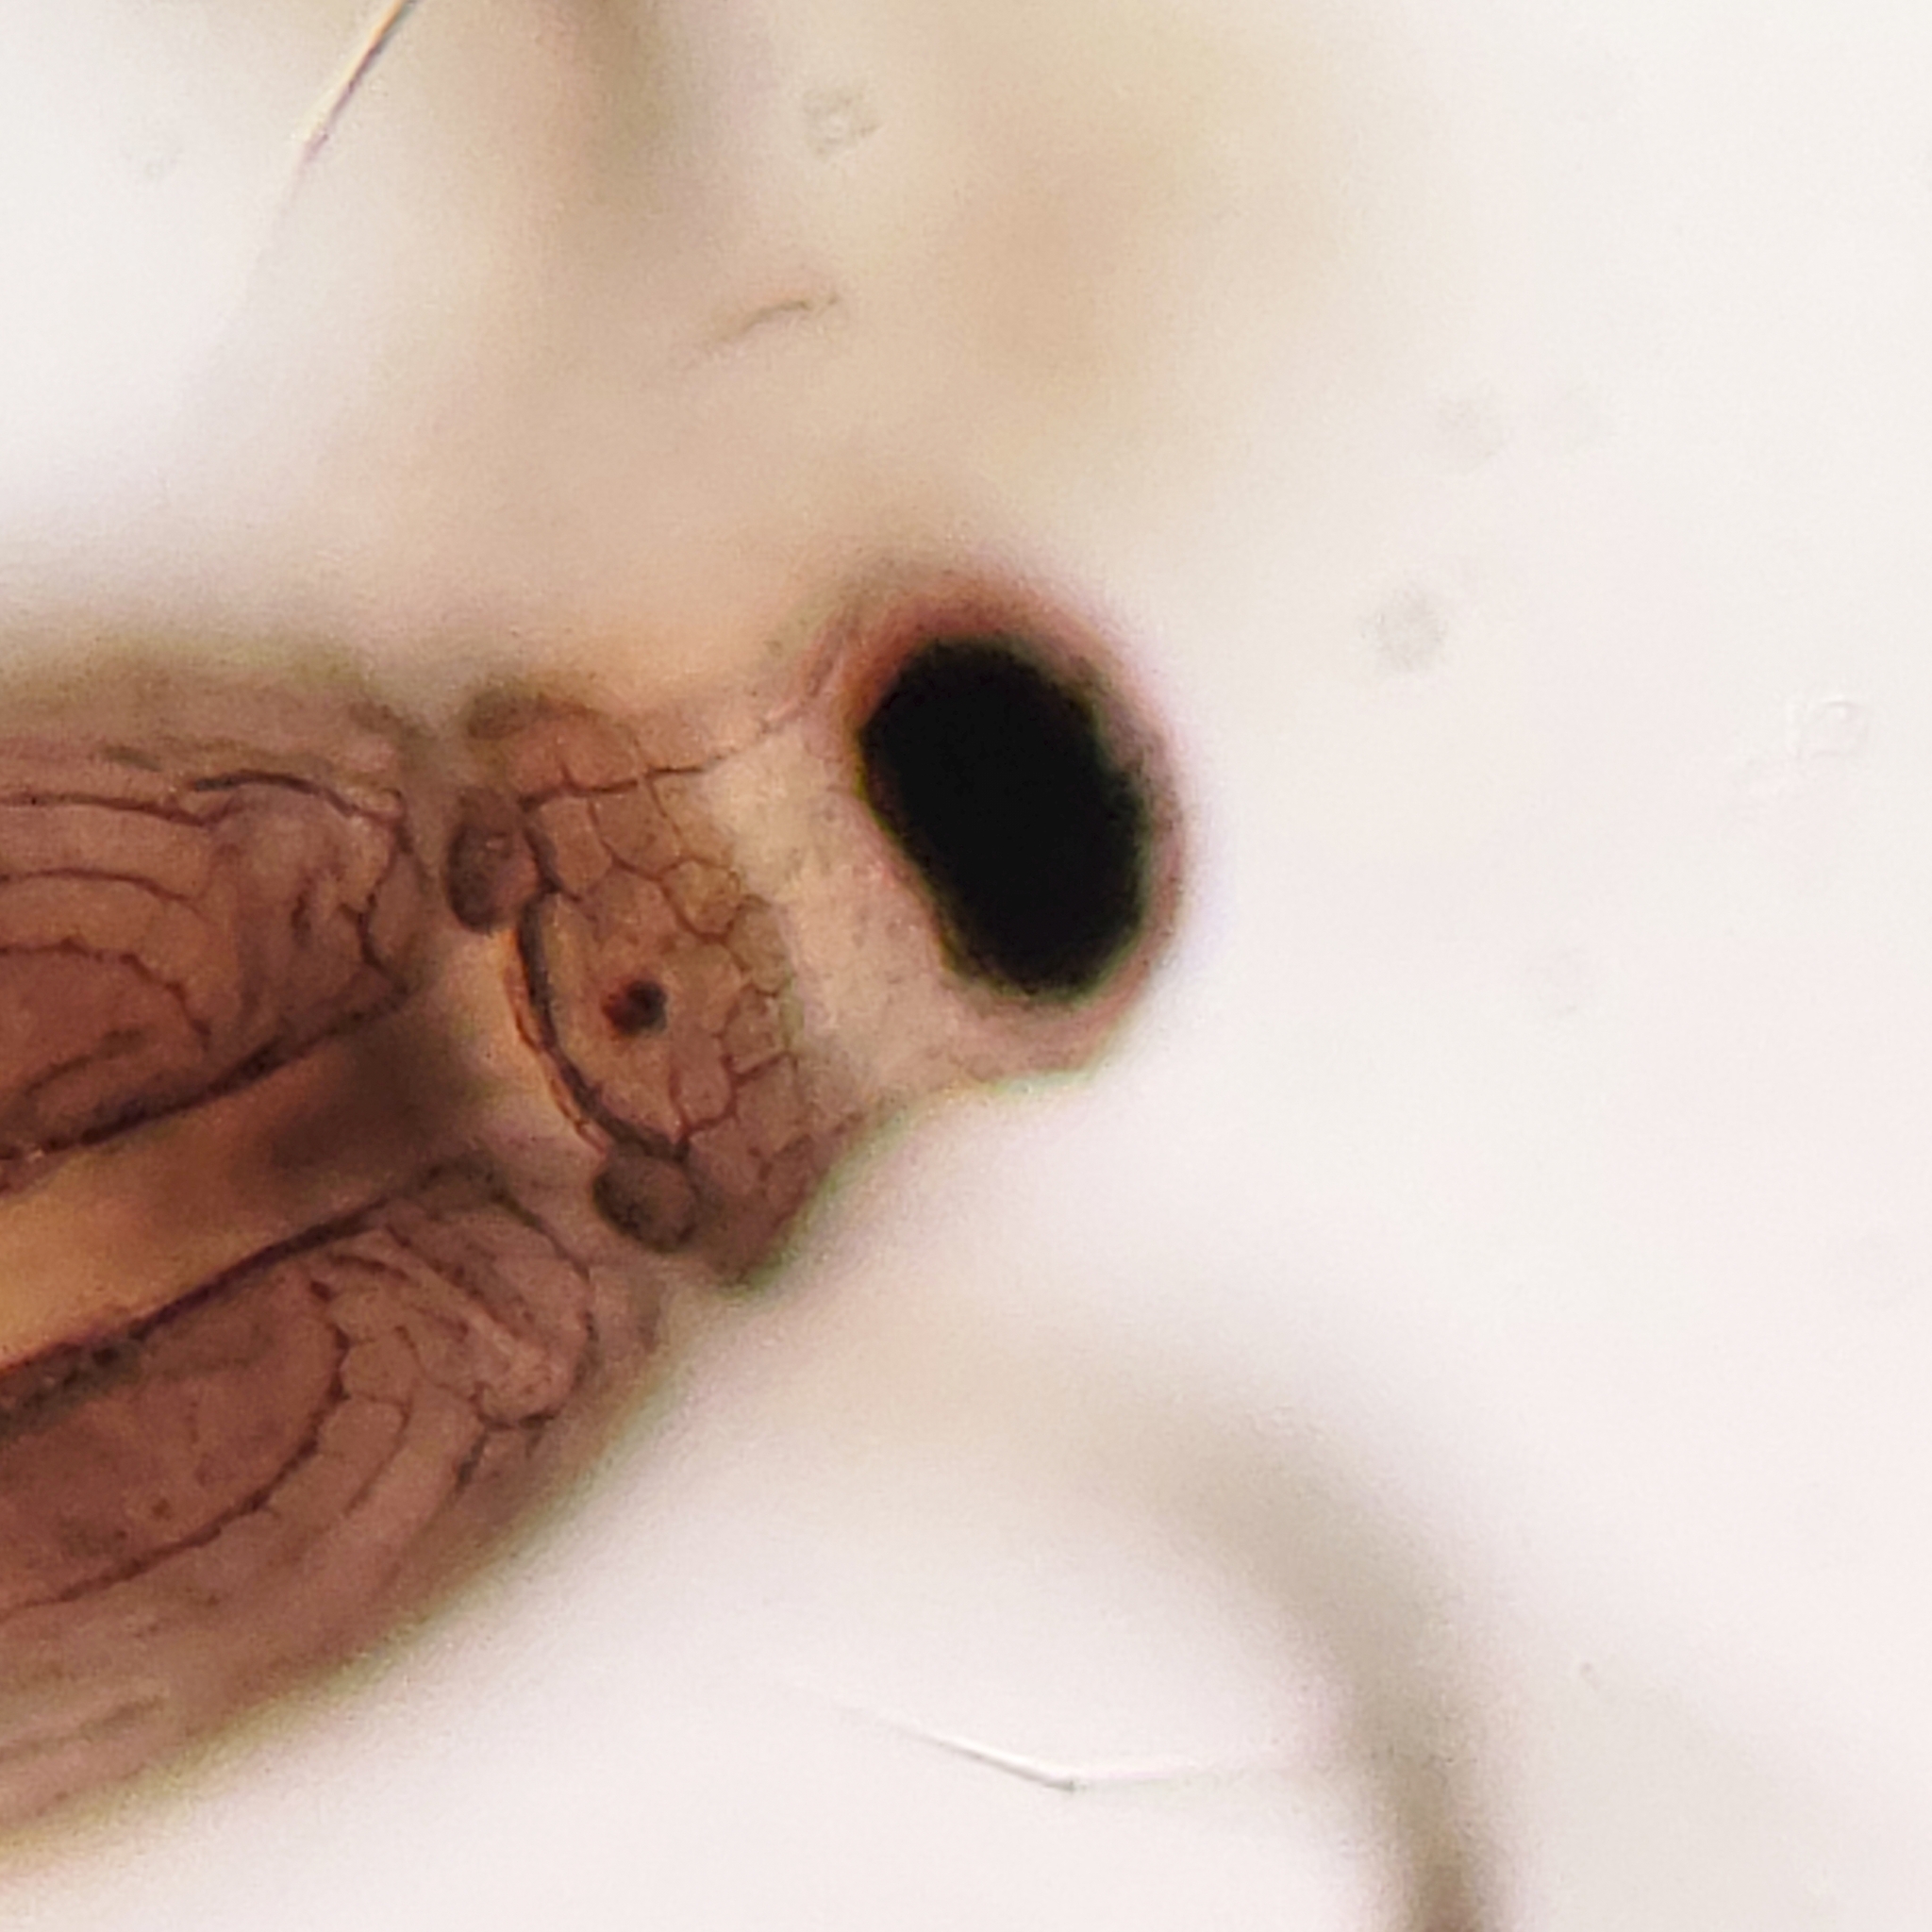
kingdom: Animalia
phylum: Arthropoda
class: Branchiopoda
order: Diplostraca
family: Daphniidae
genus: Scapholeberis
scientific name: Scapholeberis armata
